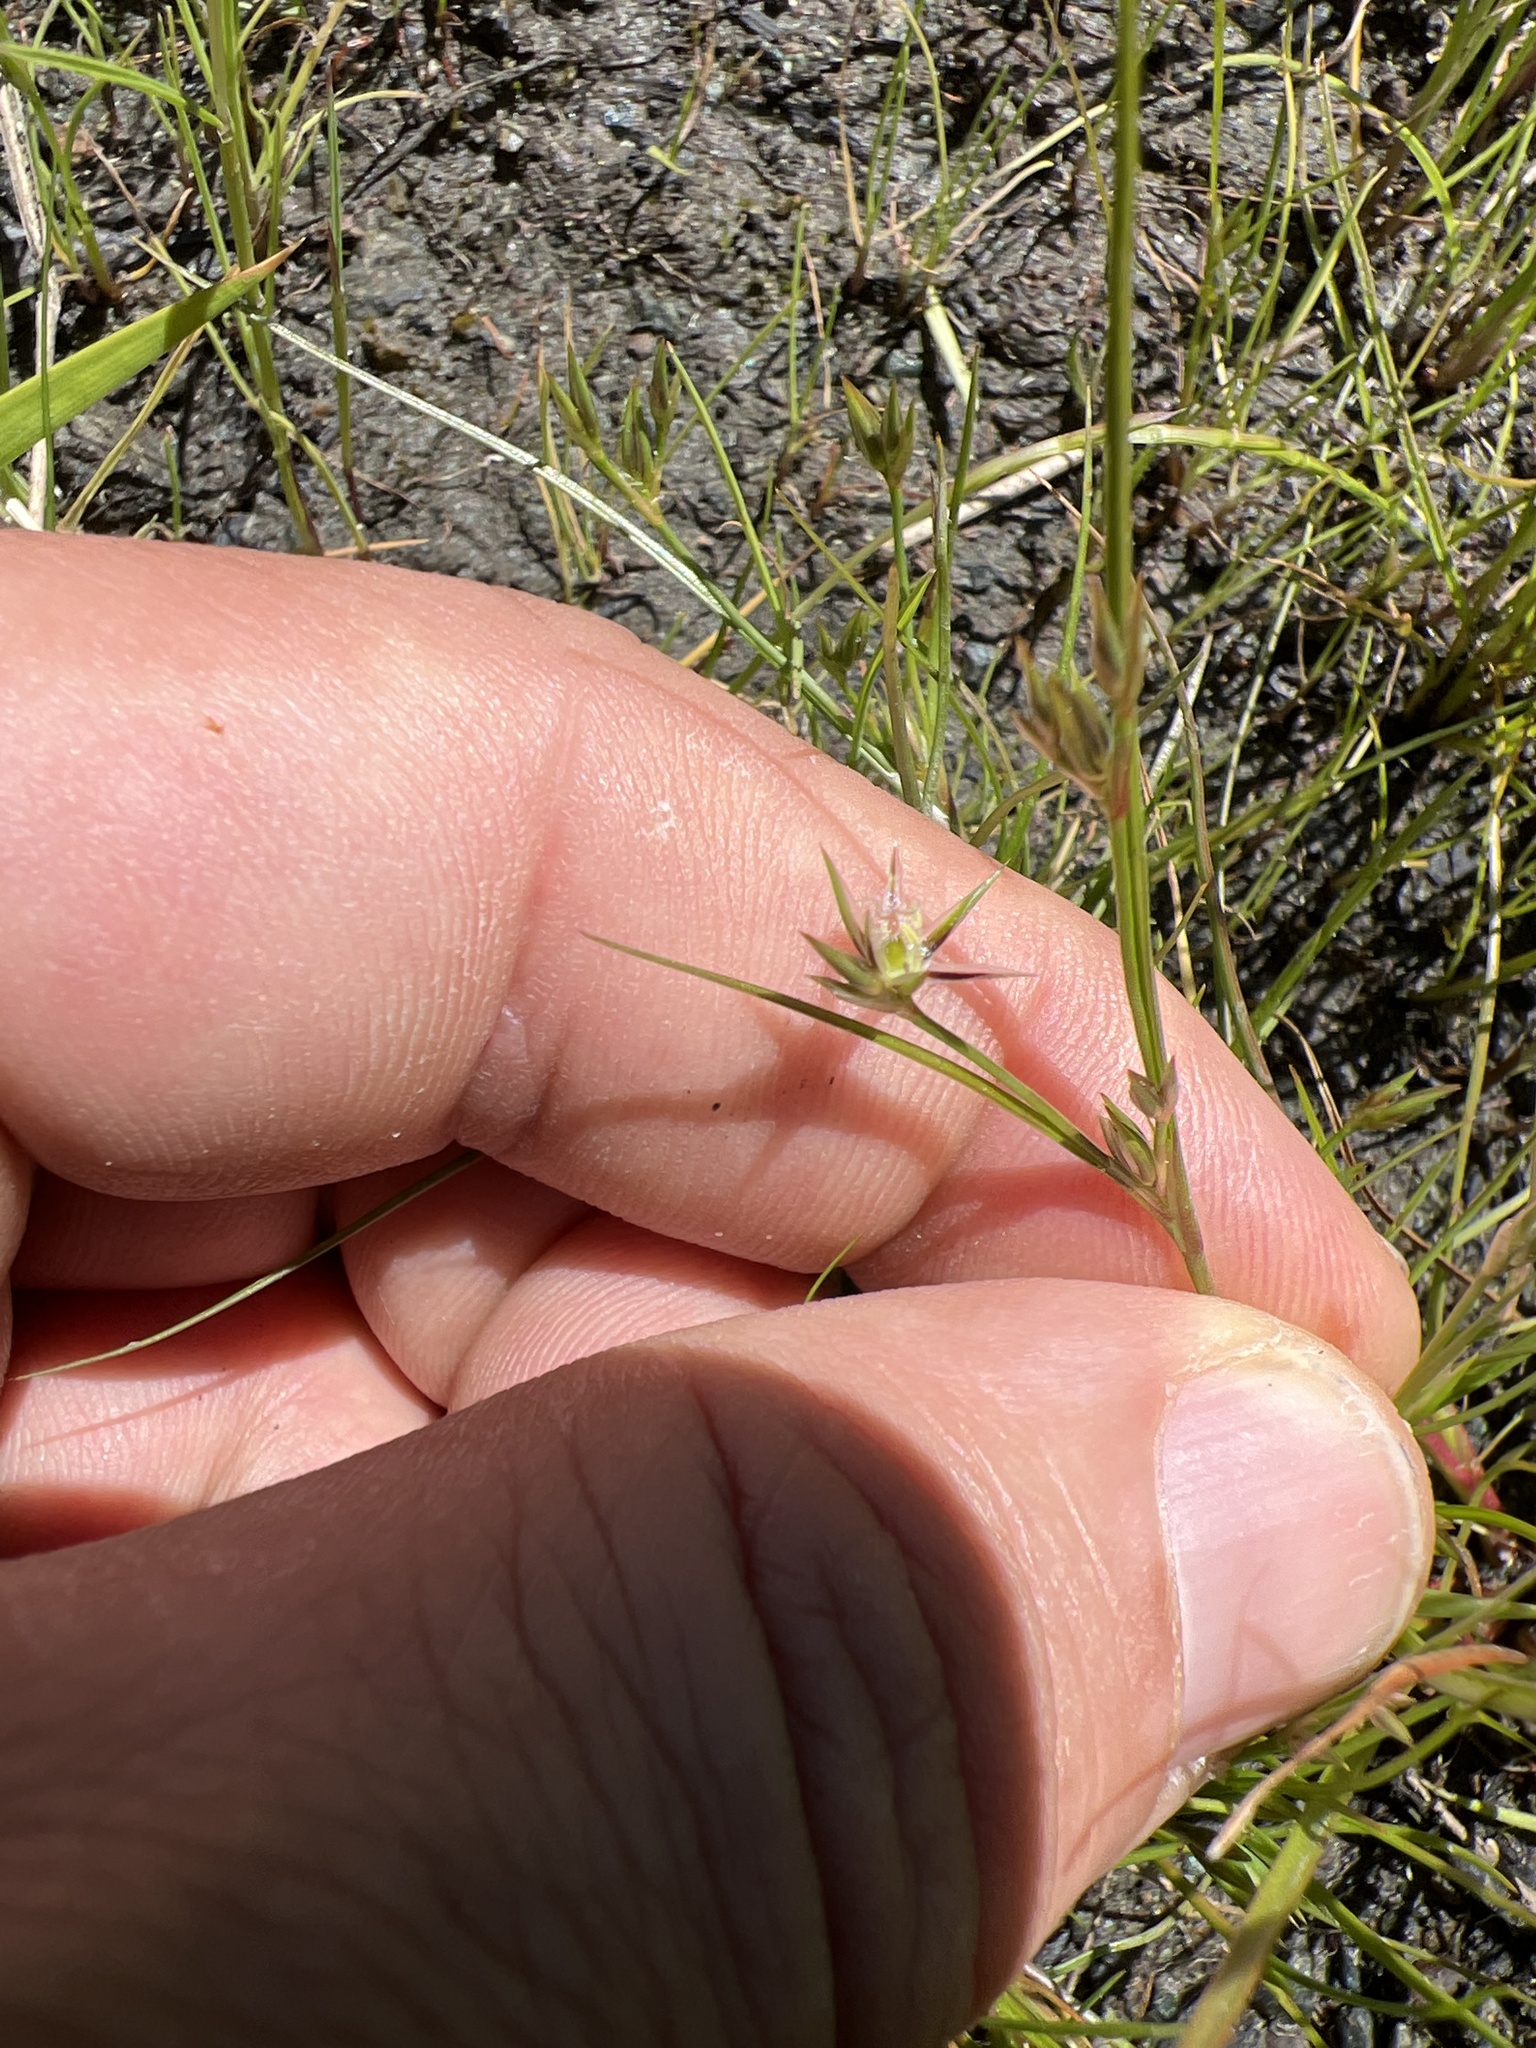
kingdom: Plantae
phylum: Tracheophyta
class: Liliopsida
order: Poales
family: Juncaceae
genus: Juncus
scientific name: Juncus bufonius
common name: Toad rush
